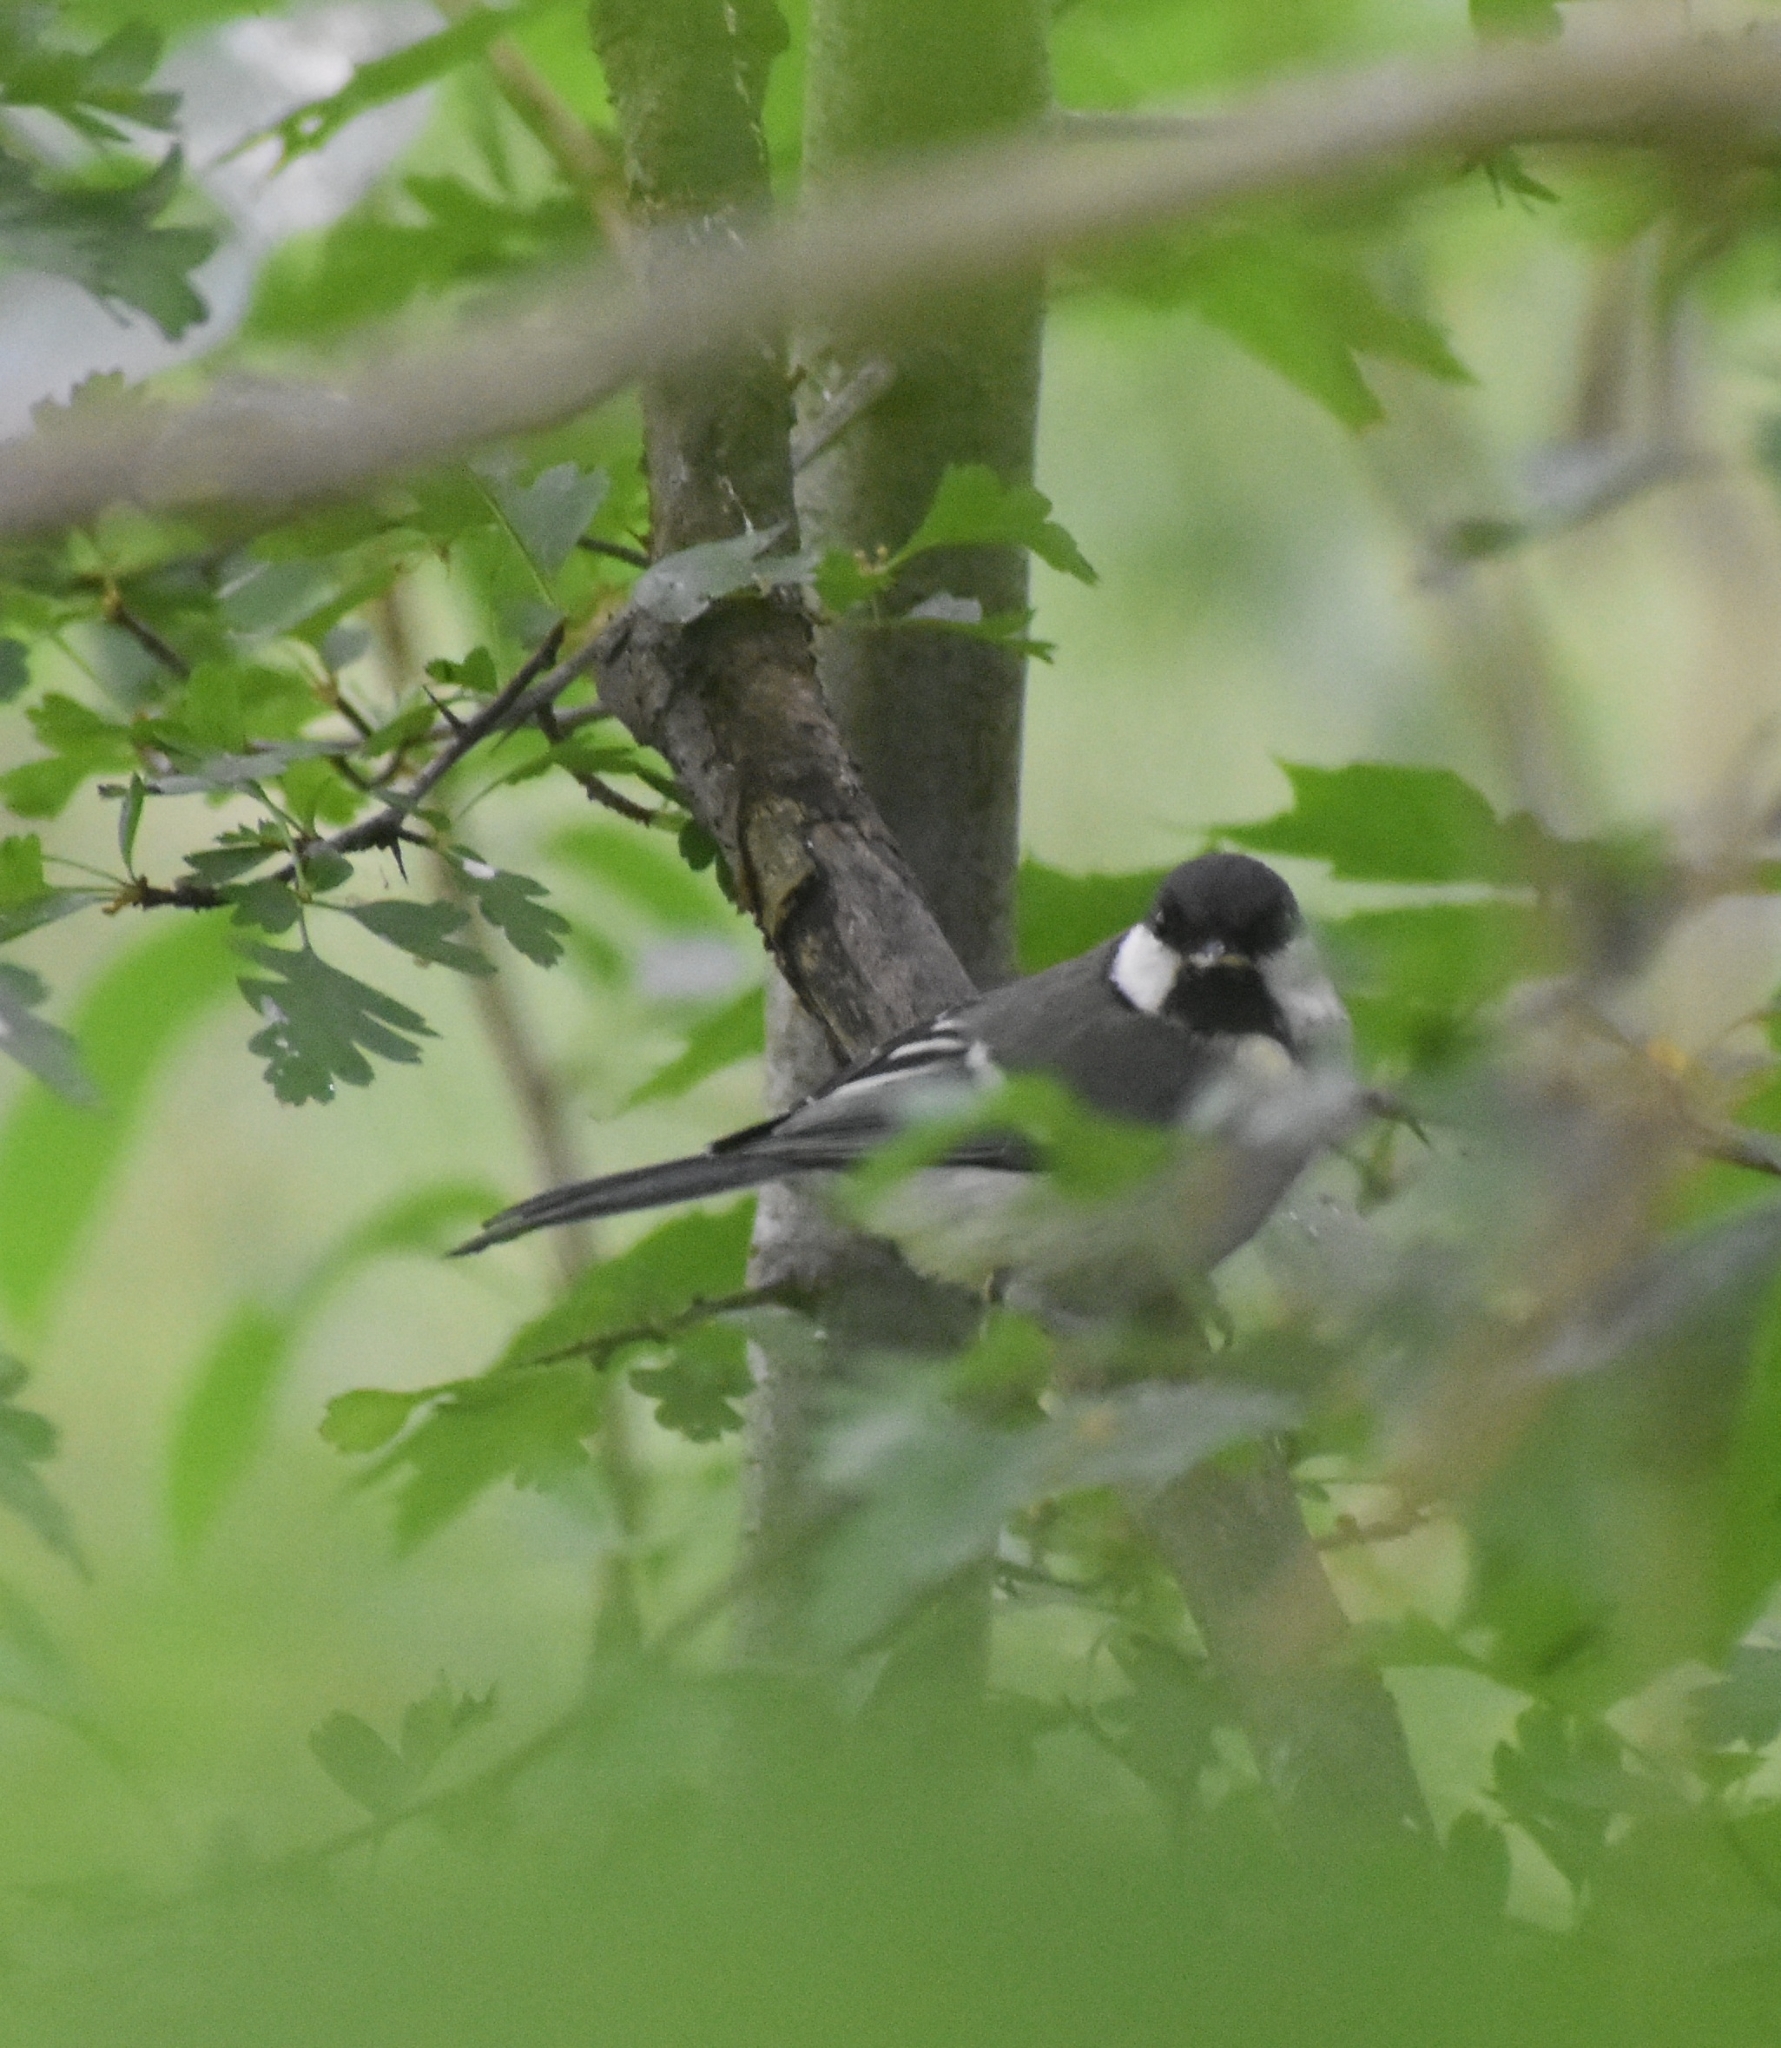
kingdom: Animalia
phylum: Chordata
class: Aves
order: Passeriformes
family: Paridae
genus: Parus
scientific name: Parus major
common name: Great tit
